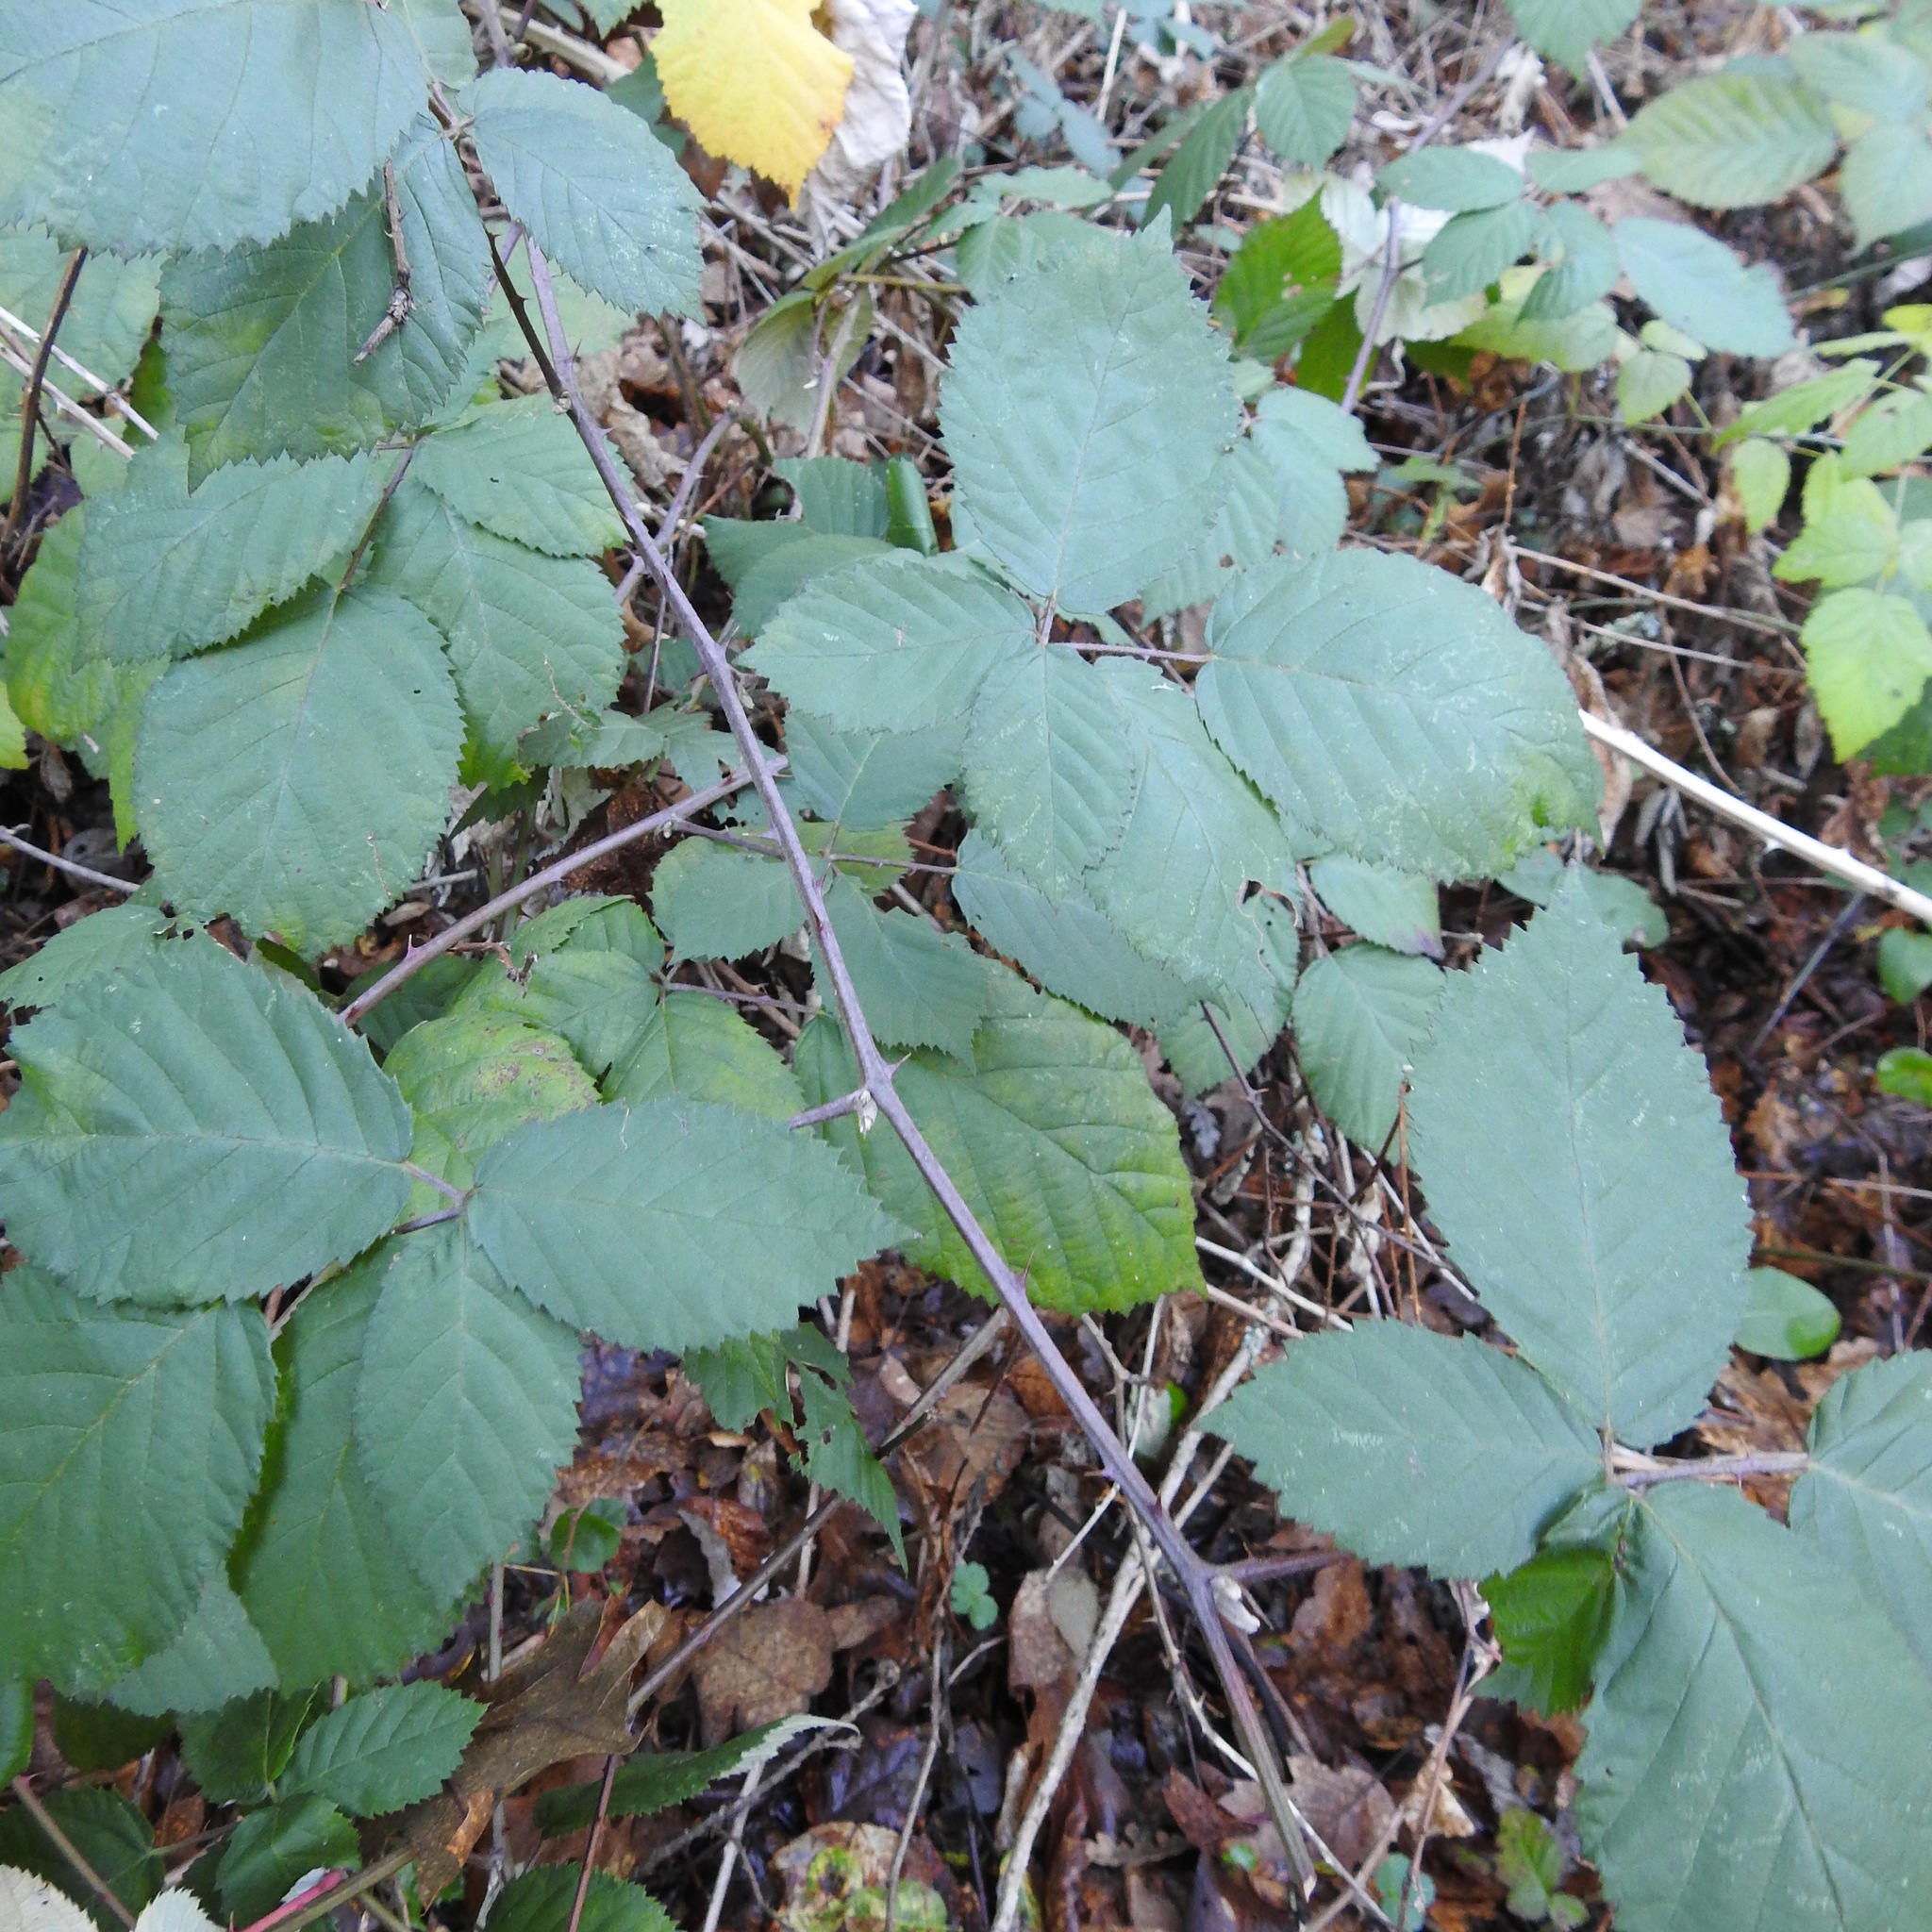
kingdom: Plantae
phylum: Tracheophyta
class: Magnoliopsida
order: Rosales
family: Rosaceae
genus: Rubus
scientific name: Rubus armeniacus
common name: Himalayan blackberry
